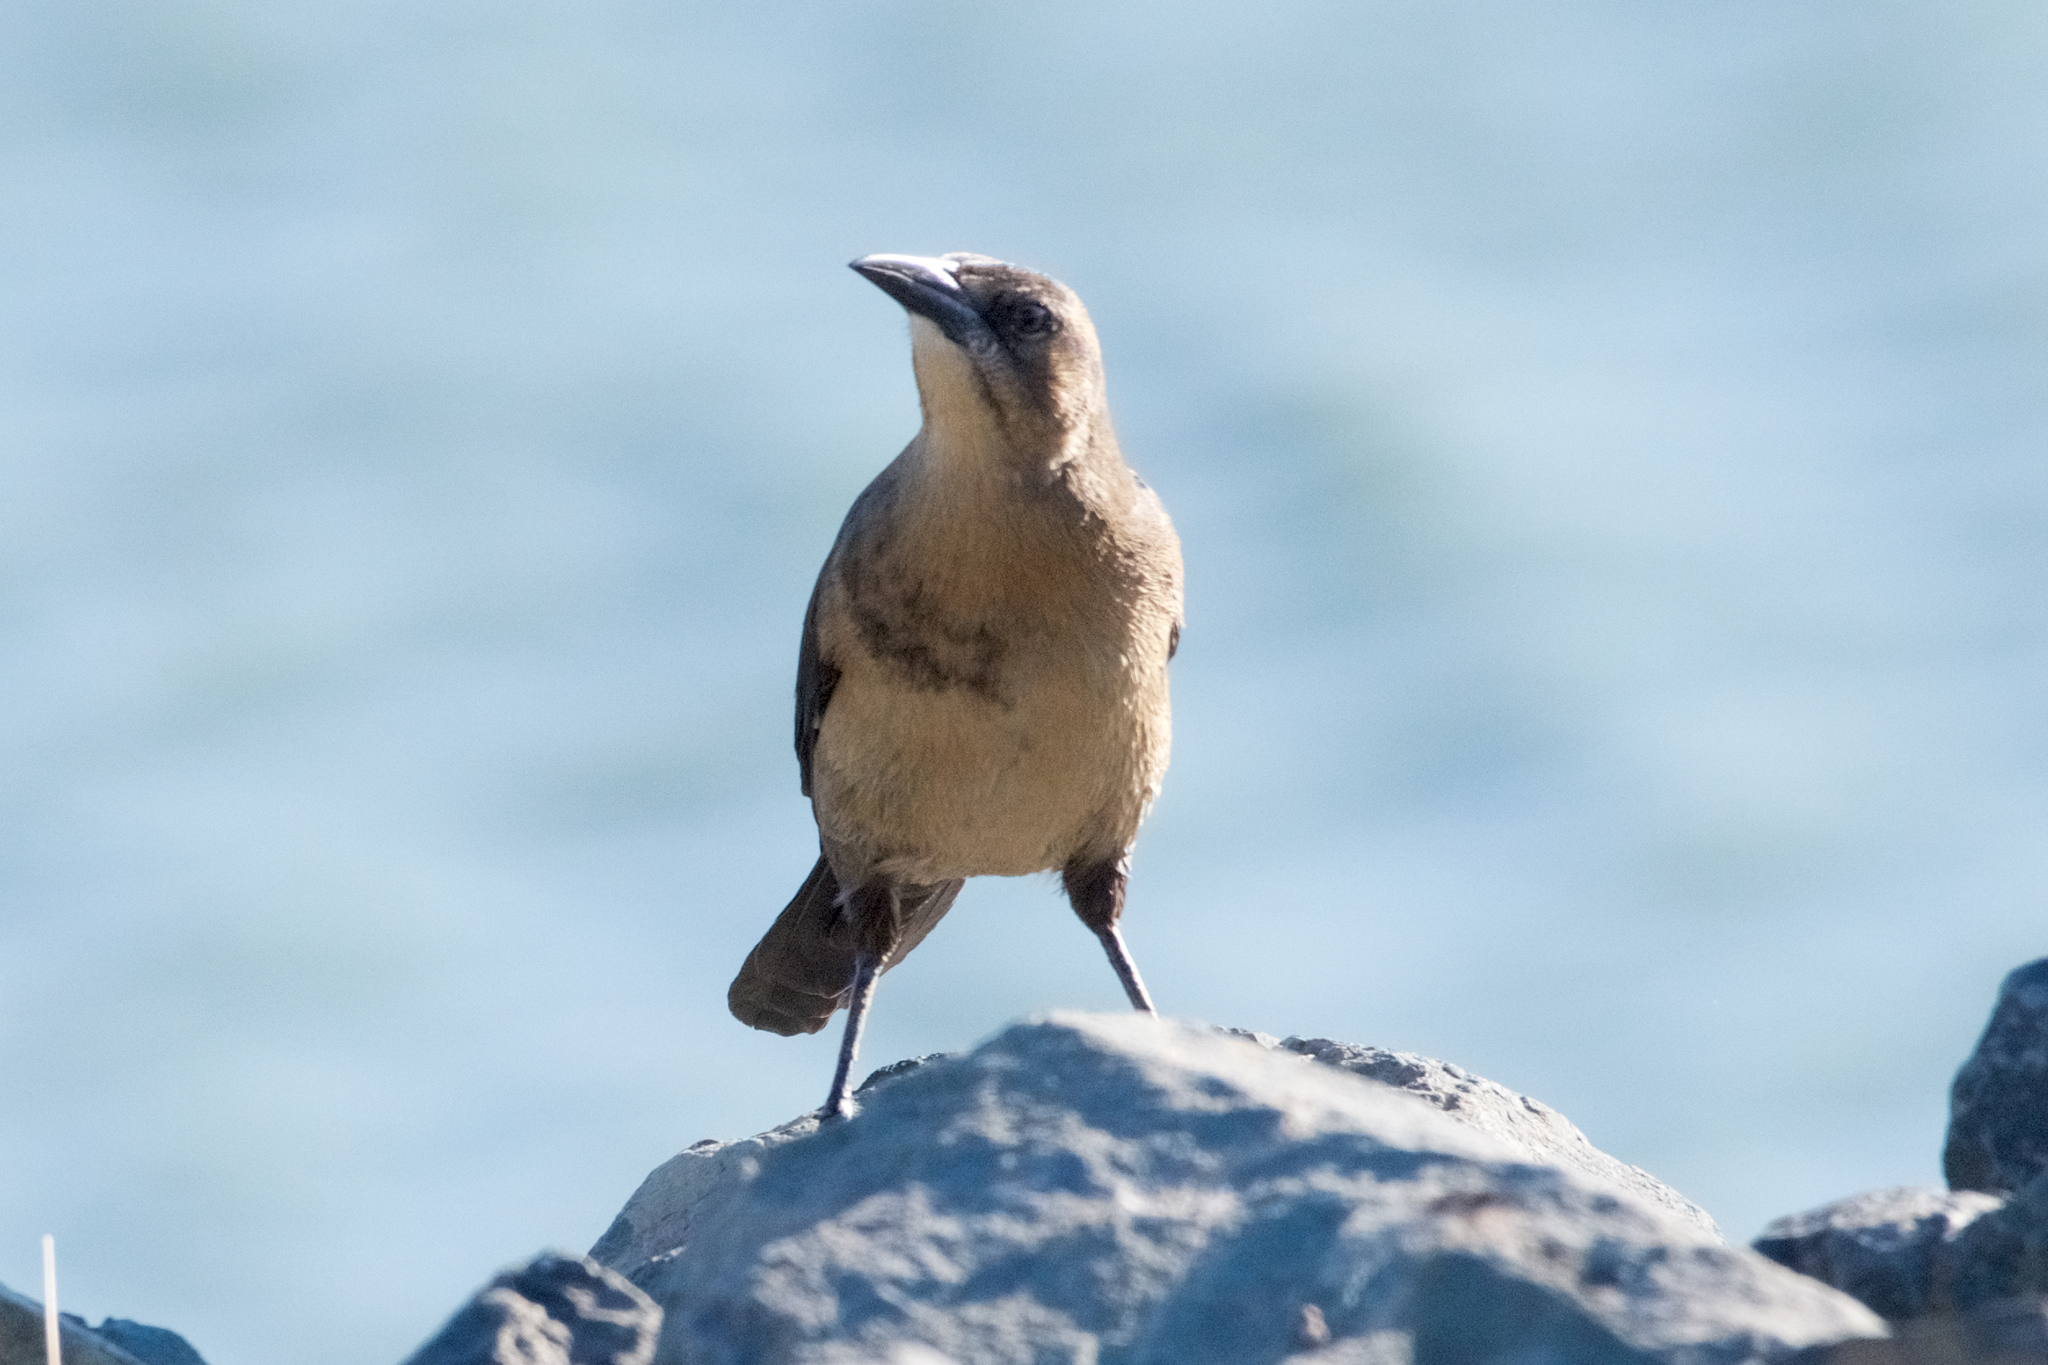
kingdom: Animalia
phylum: Chordata
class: Aves
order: Passeriformes
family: Icteridae
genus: Quiscalus
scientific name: Quiscalus mexicanus
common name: Great-tailed grackle
